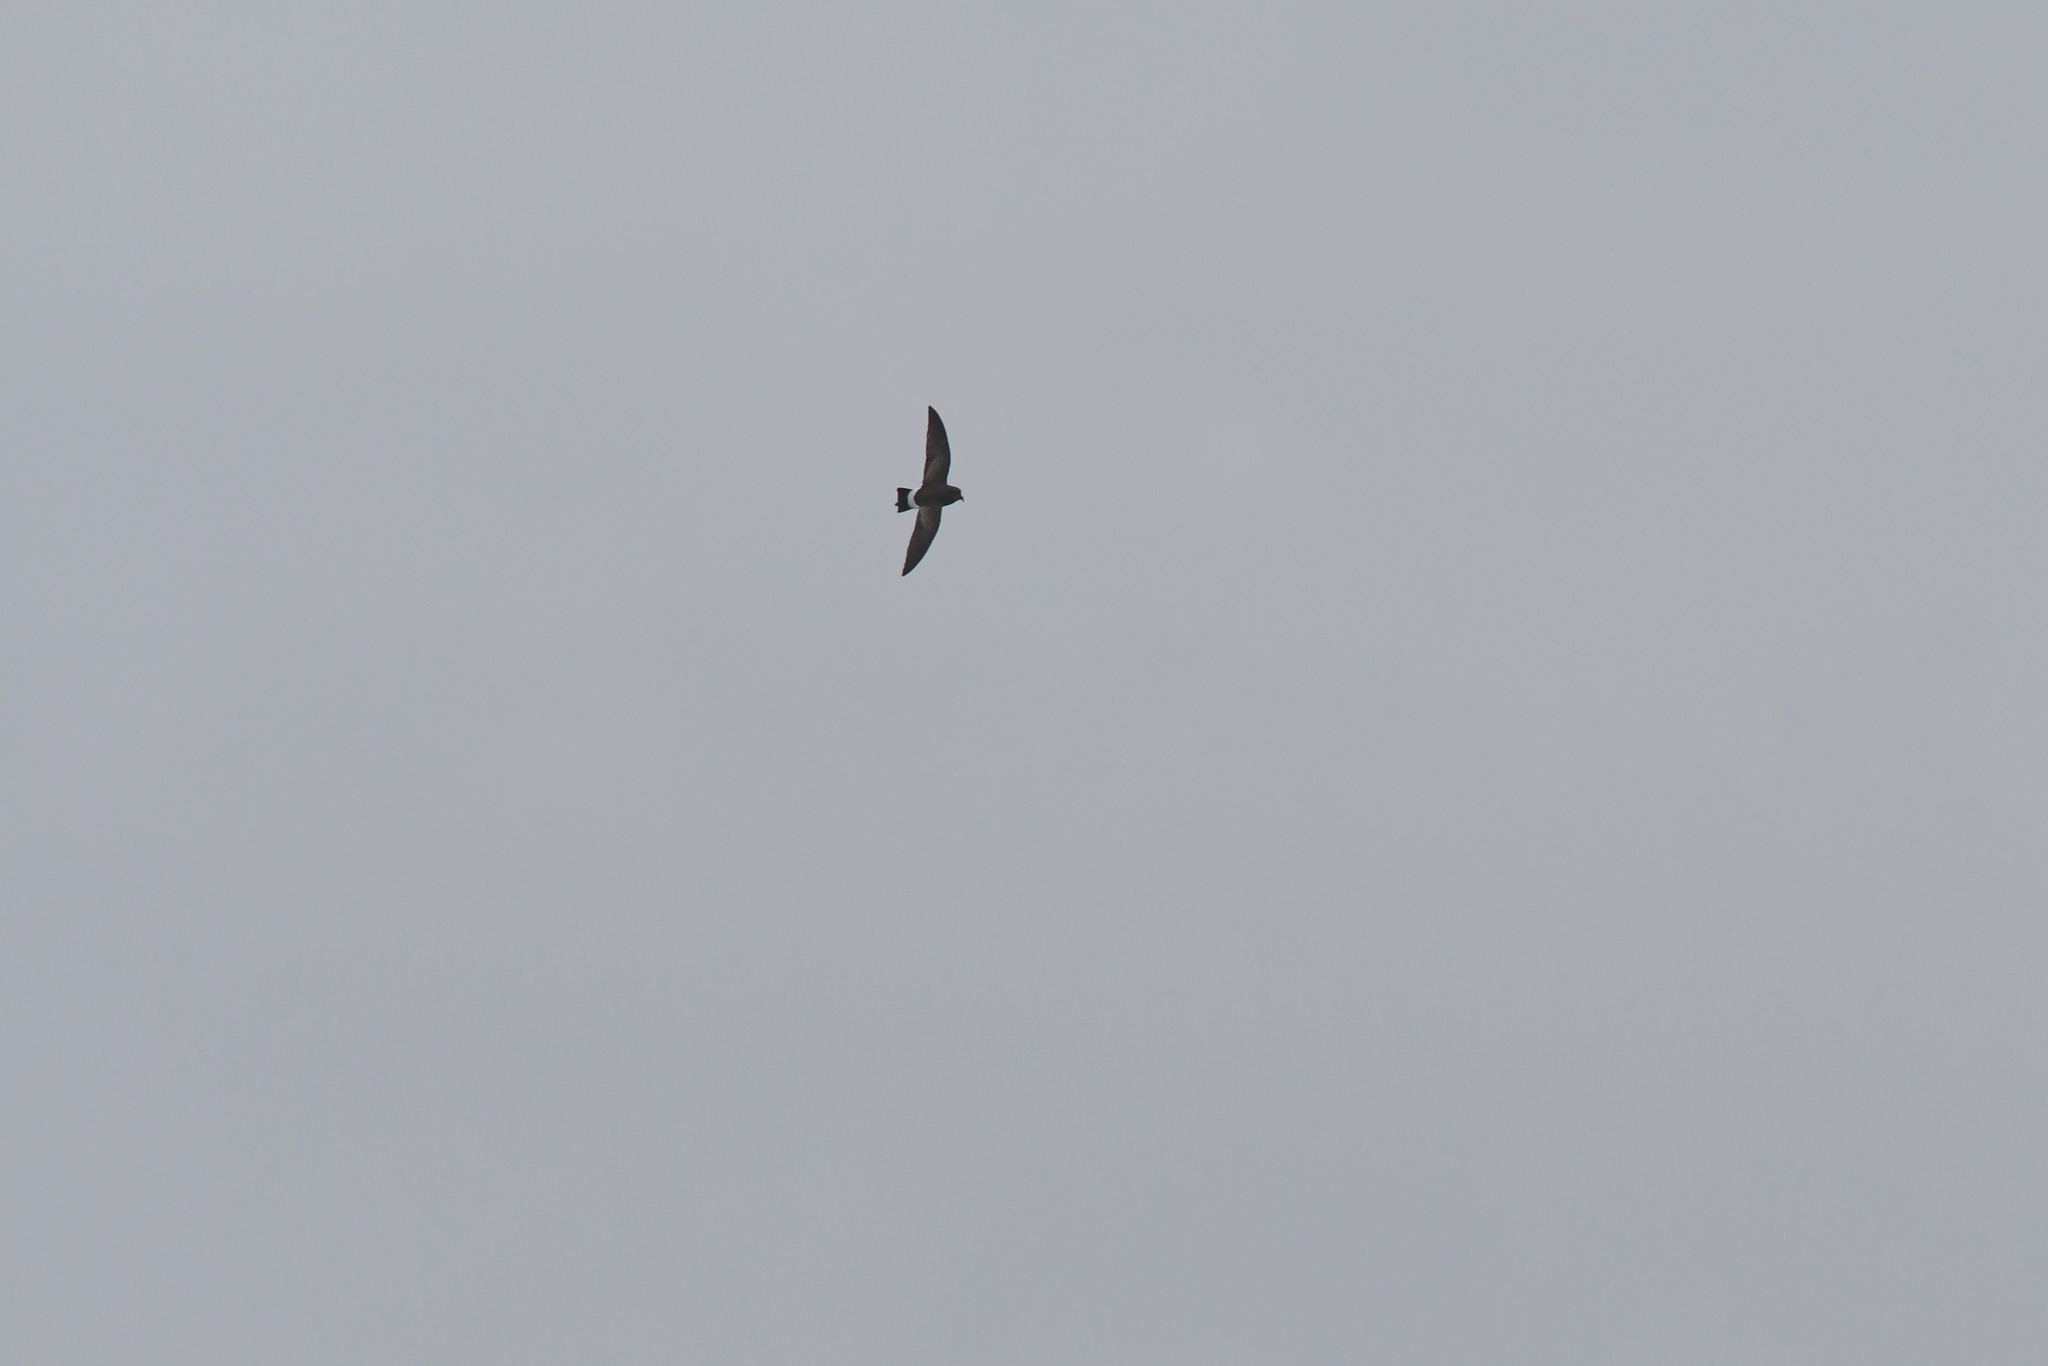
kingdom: Animalia
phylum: Chordata
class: Aves
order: Procellariiformes
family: Hydrobatidae
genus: Fregetta
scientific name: Fregetta tropica
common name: Black-bellied storm-petrel
